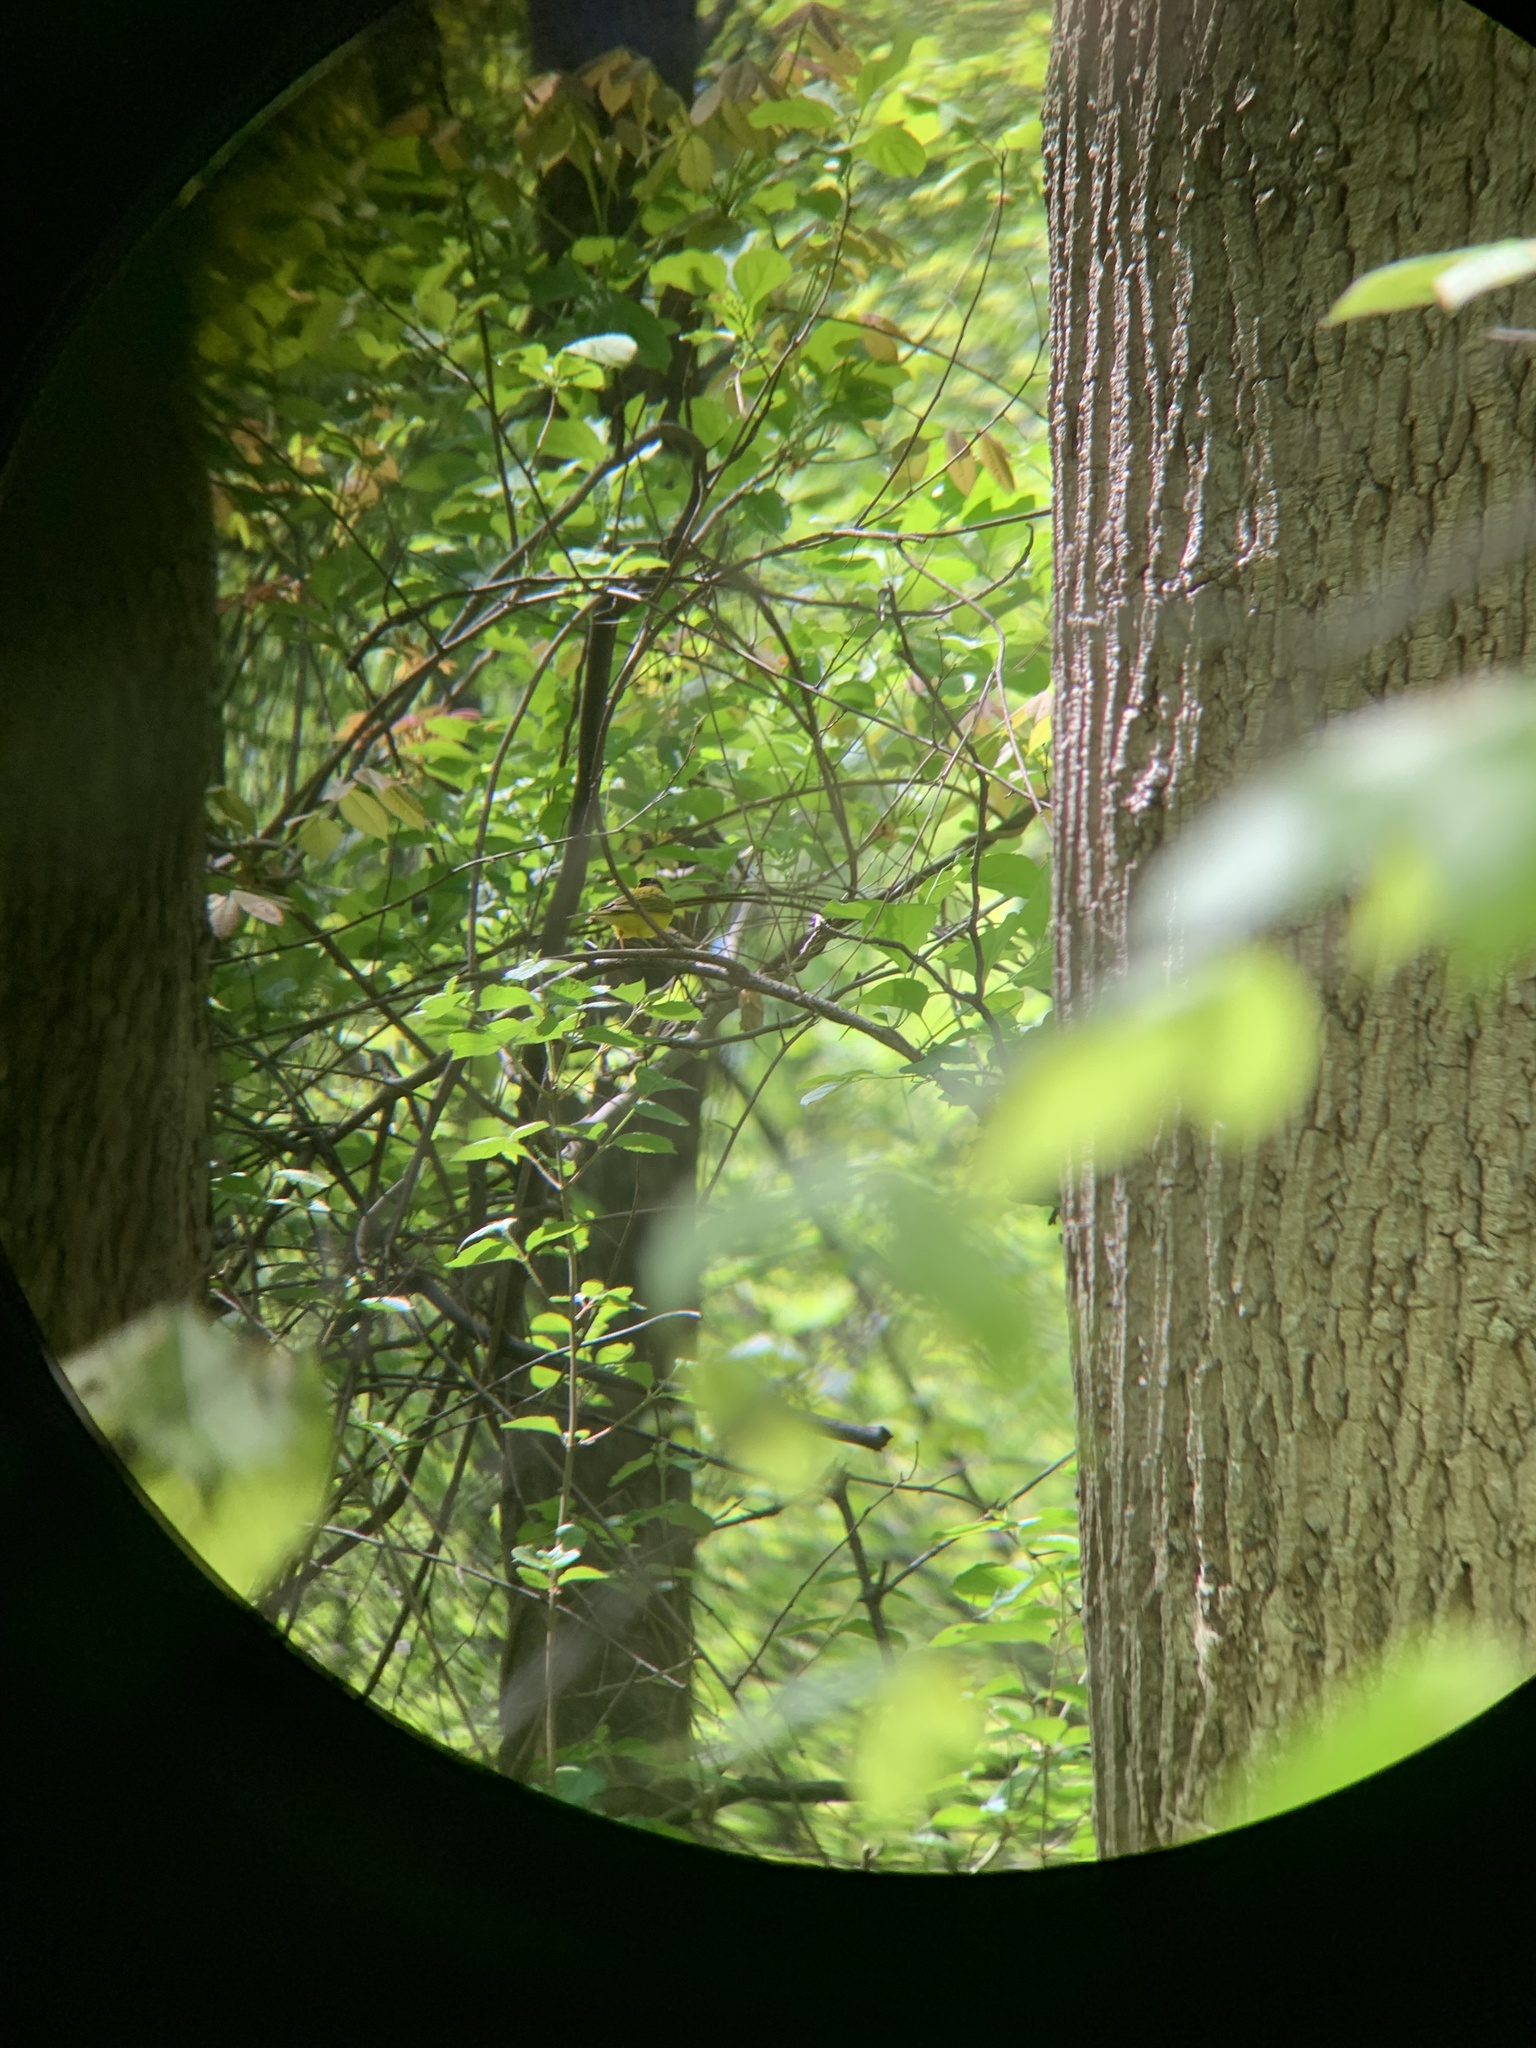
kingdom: Animalia
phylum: Chordata
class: Aves
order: Passeriformes
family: Parulidae
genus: Setophaga
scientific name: Setophaga citrina
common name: Hooded warbler
